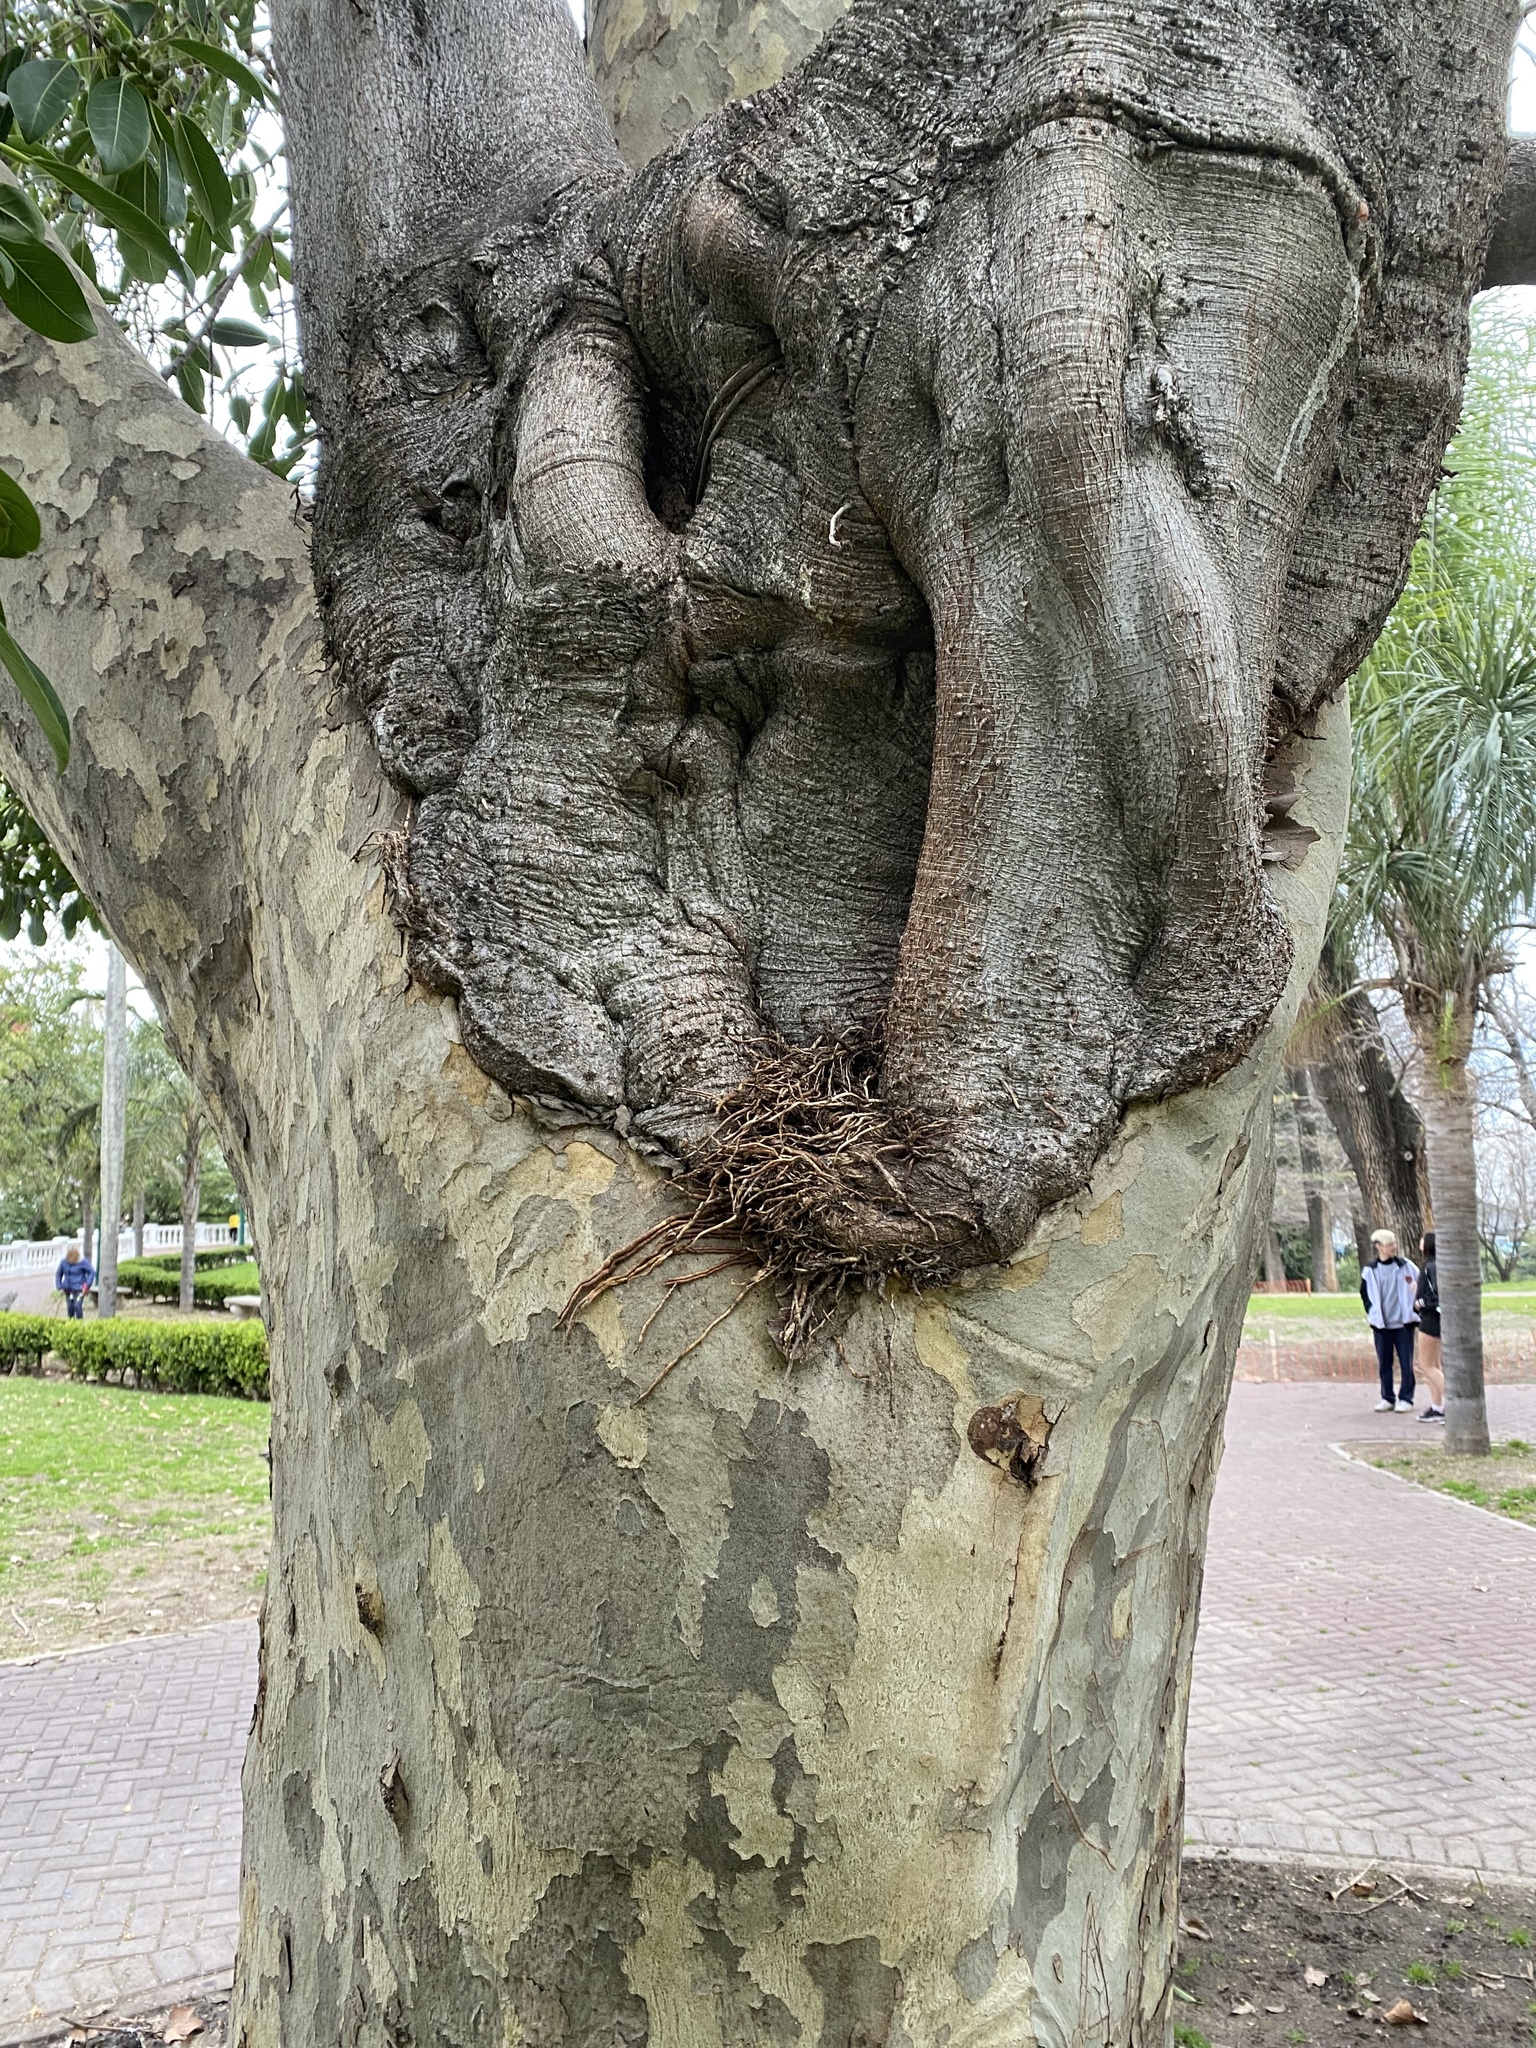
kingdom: Plantae
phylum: Tracheophyta
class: Magnoliopsida
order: Rosales
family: Moraceae
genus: Ficus
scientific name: Ficus luschnathiana
